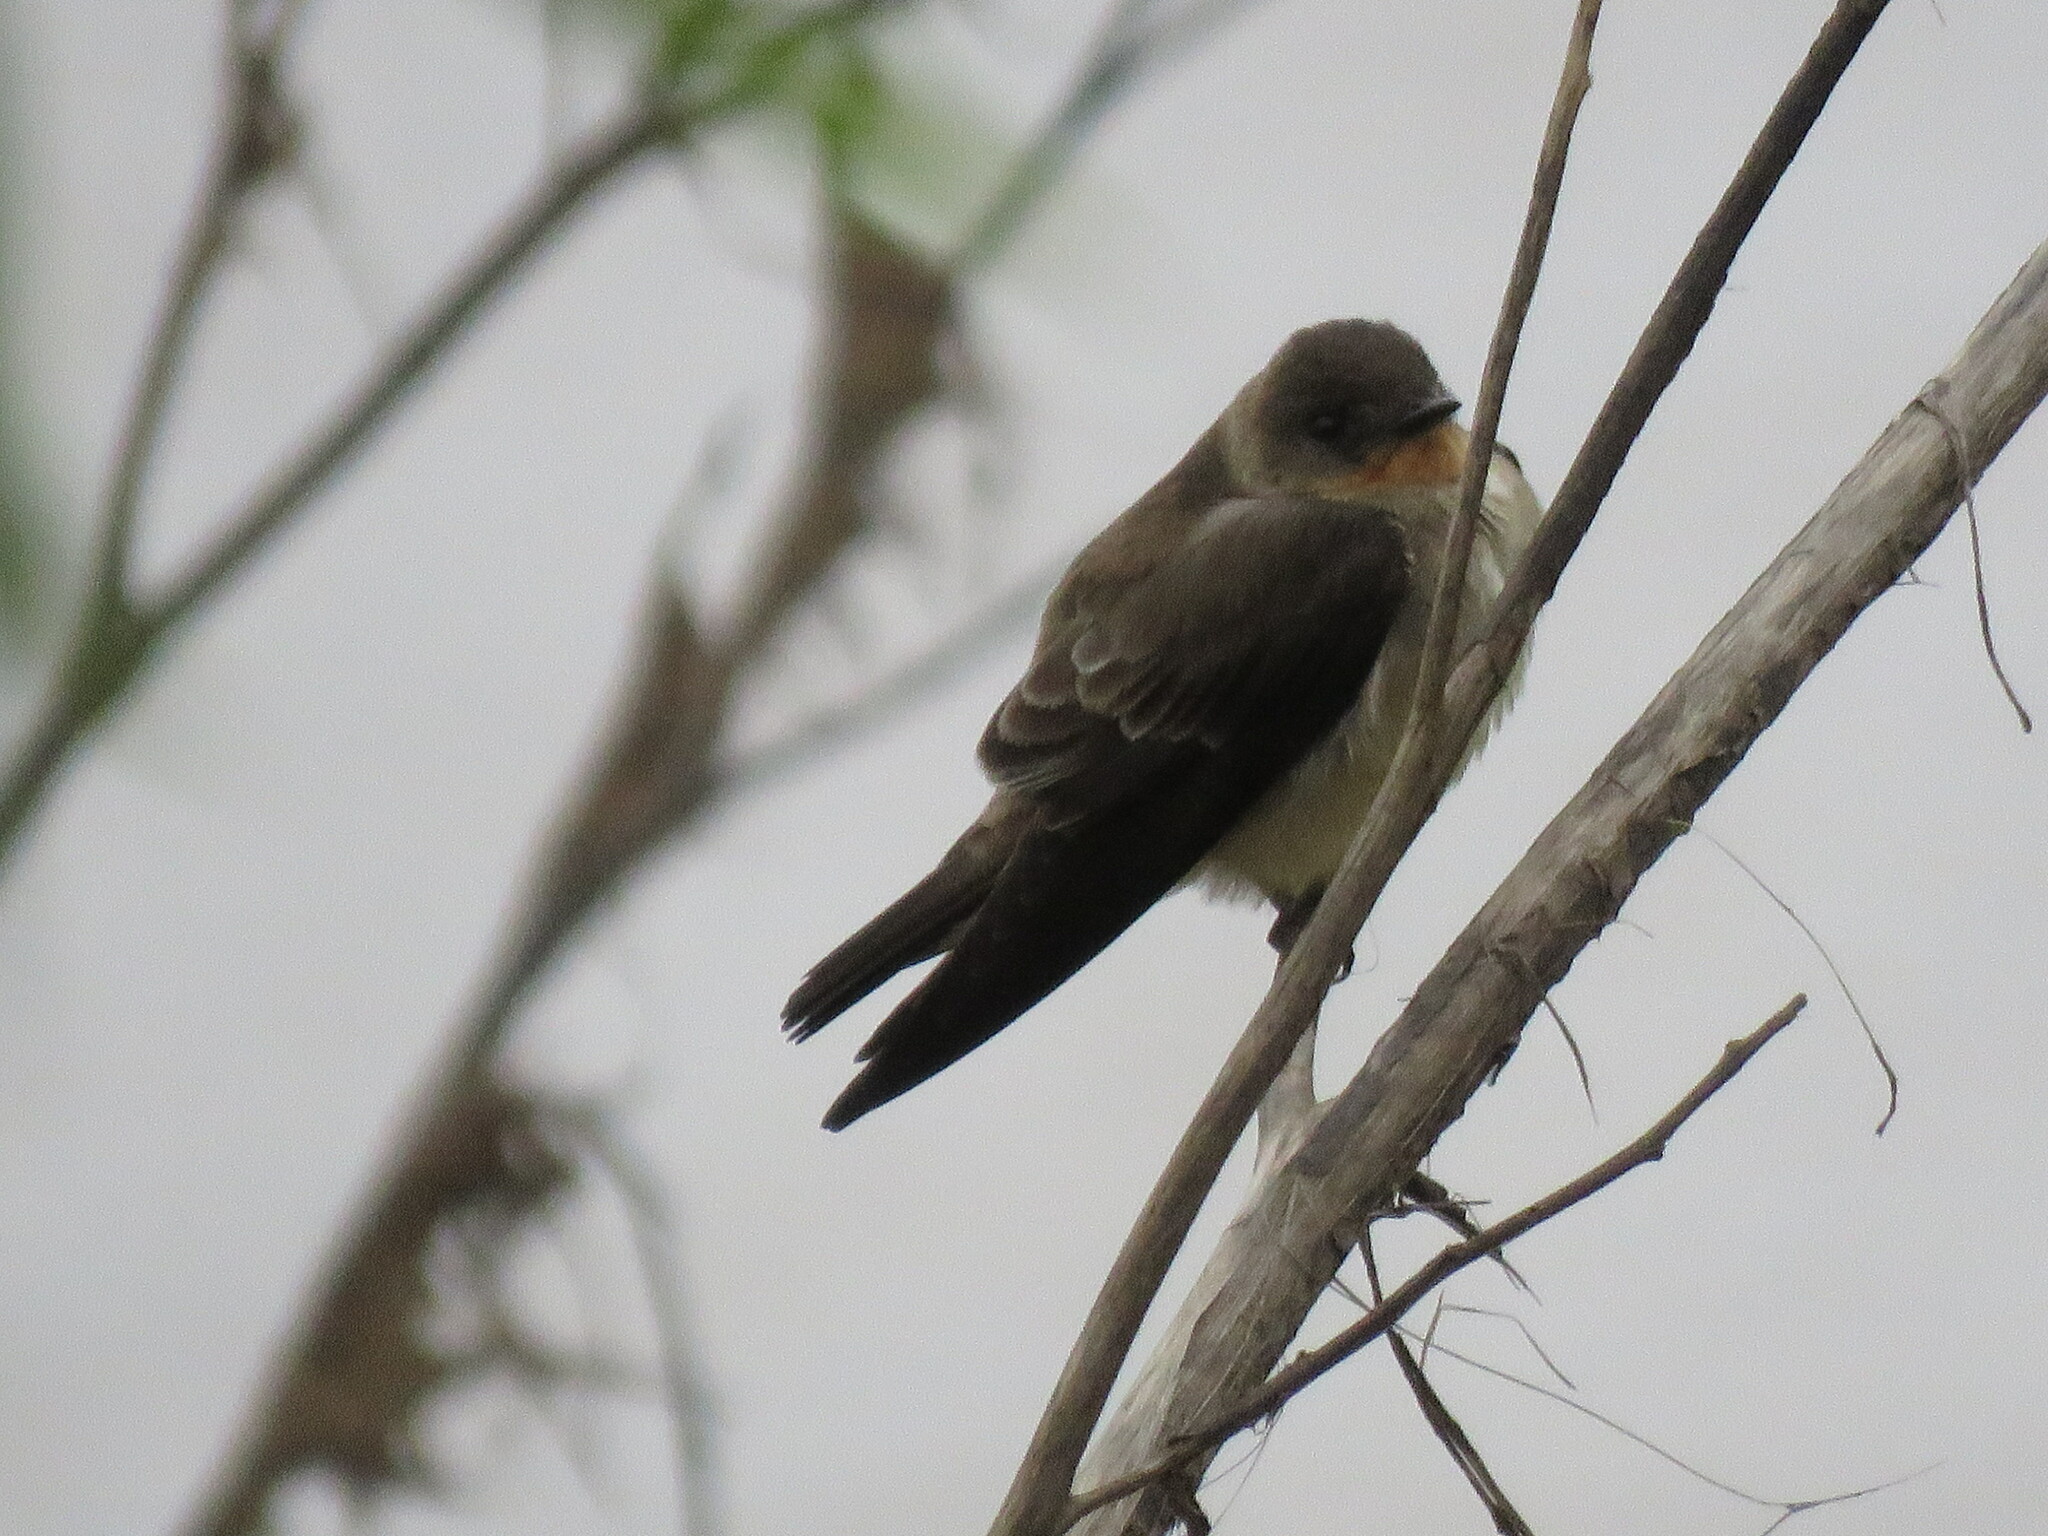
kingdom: Animalia
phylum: Chordata
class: Aves
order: Passeriformes
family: Hirundinidae
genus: Stelgidopteryx
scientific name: Stelgidopteryx ruficollis
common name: Southern rough-winged swallow
